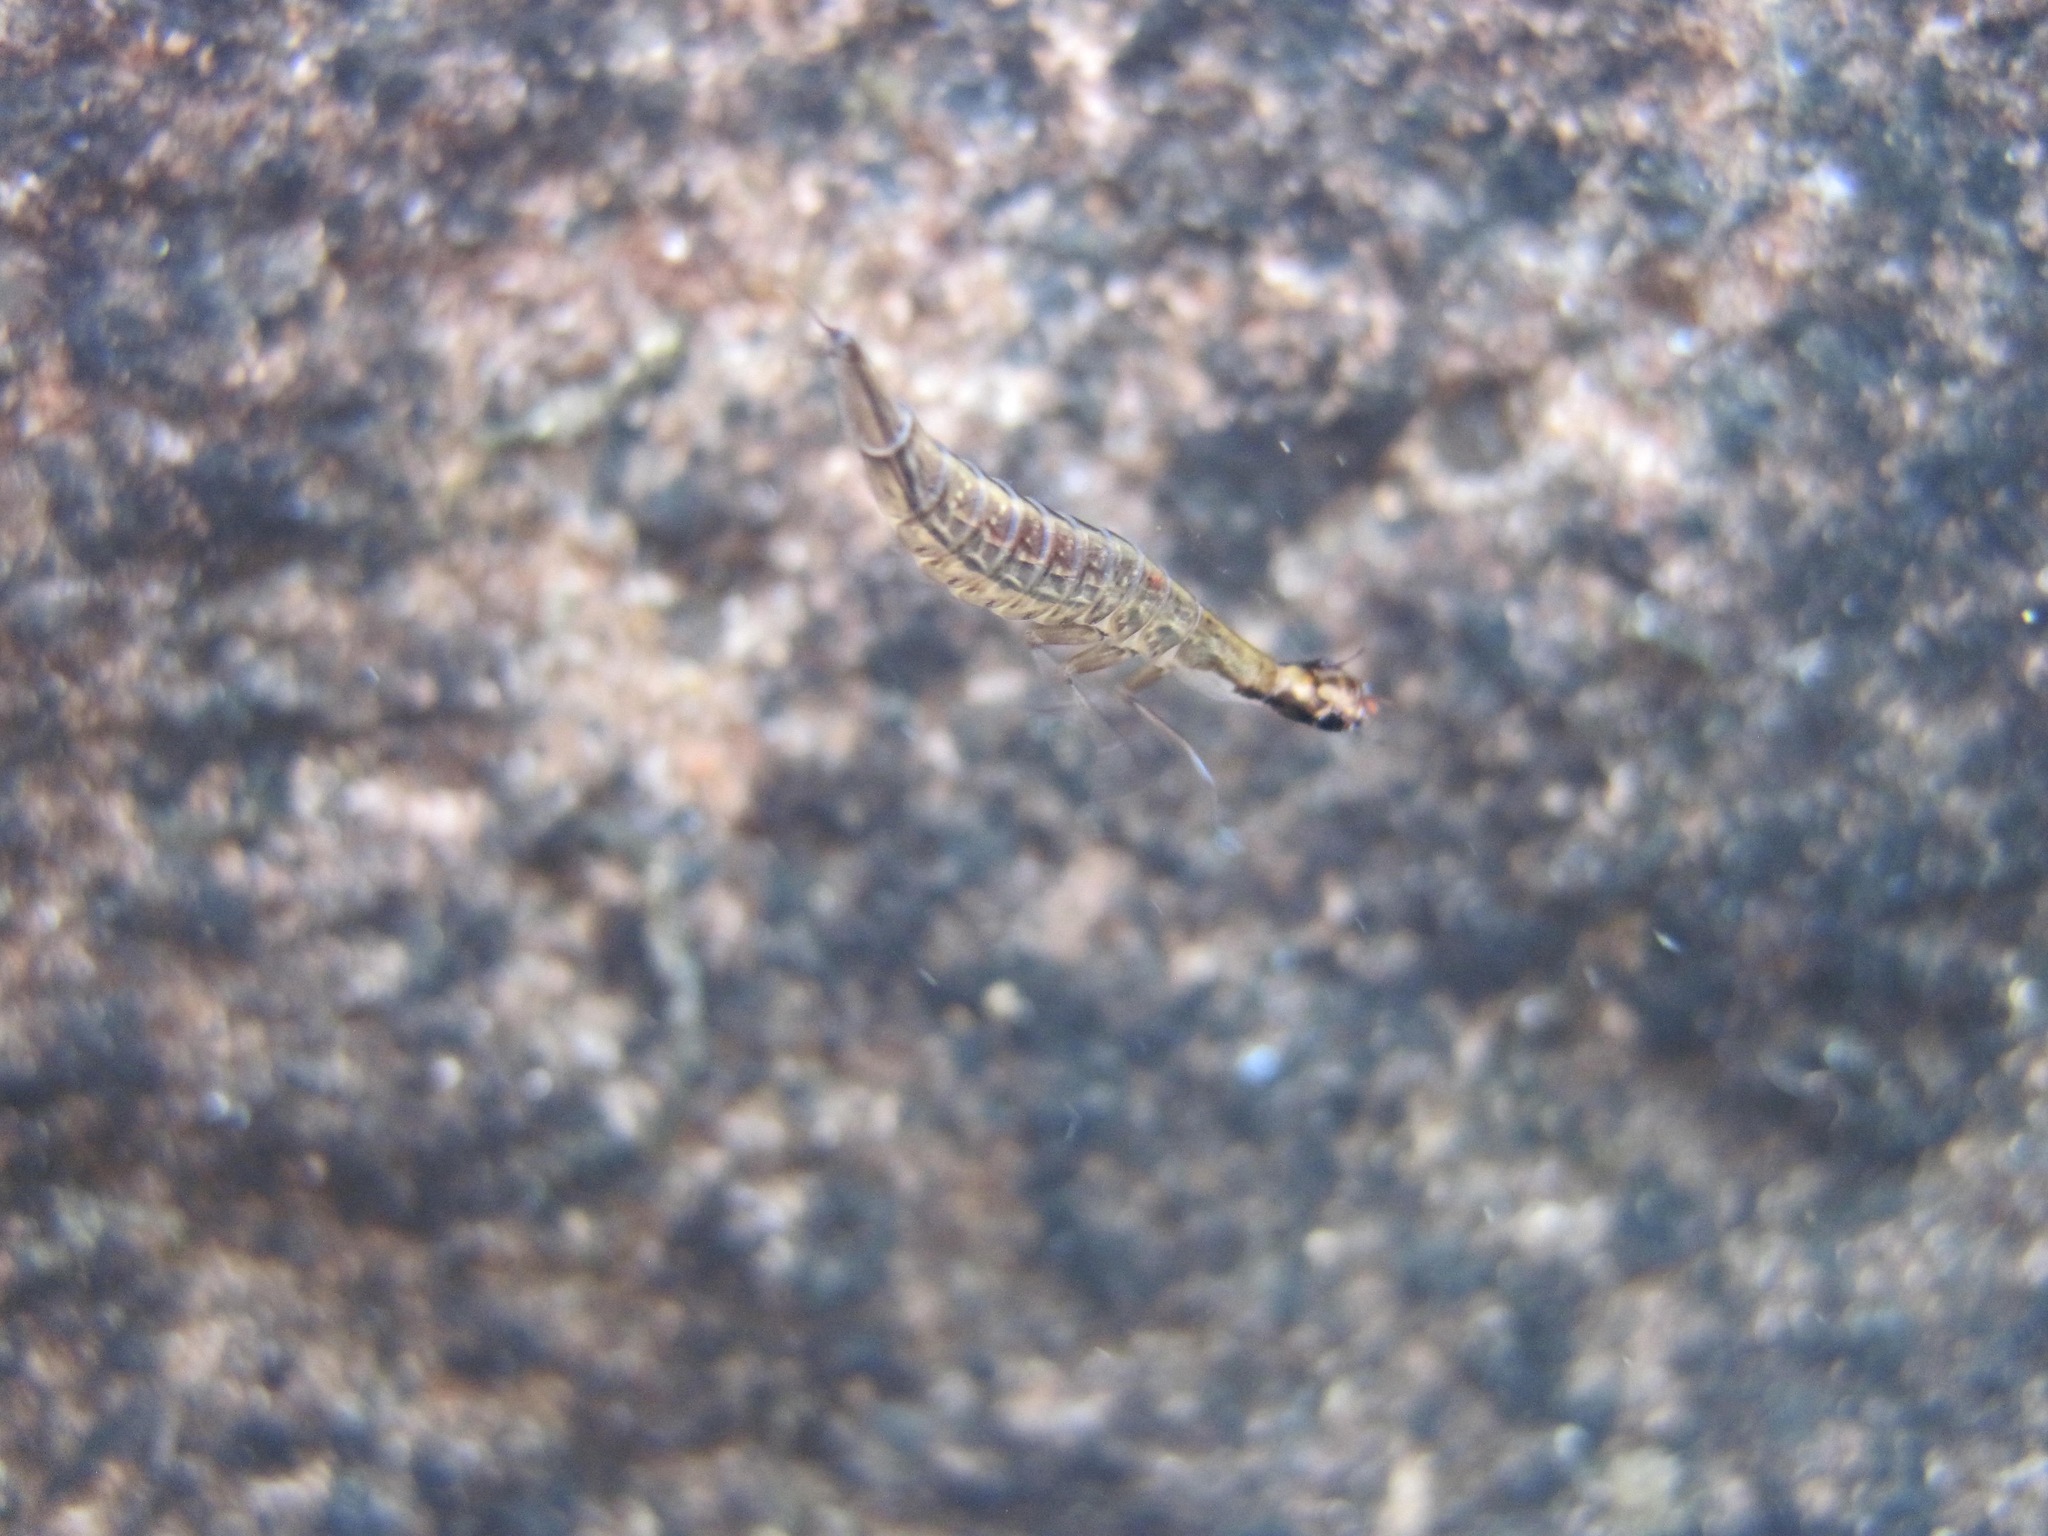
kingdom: Animalia
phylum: Arthropoda
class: Insecta
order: Coleoptera
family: Dytiscidae
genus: Acilius
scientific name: Acilius
